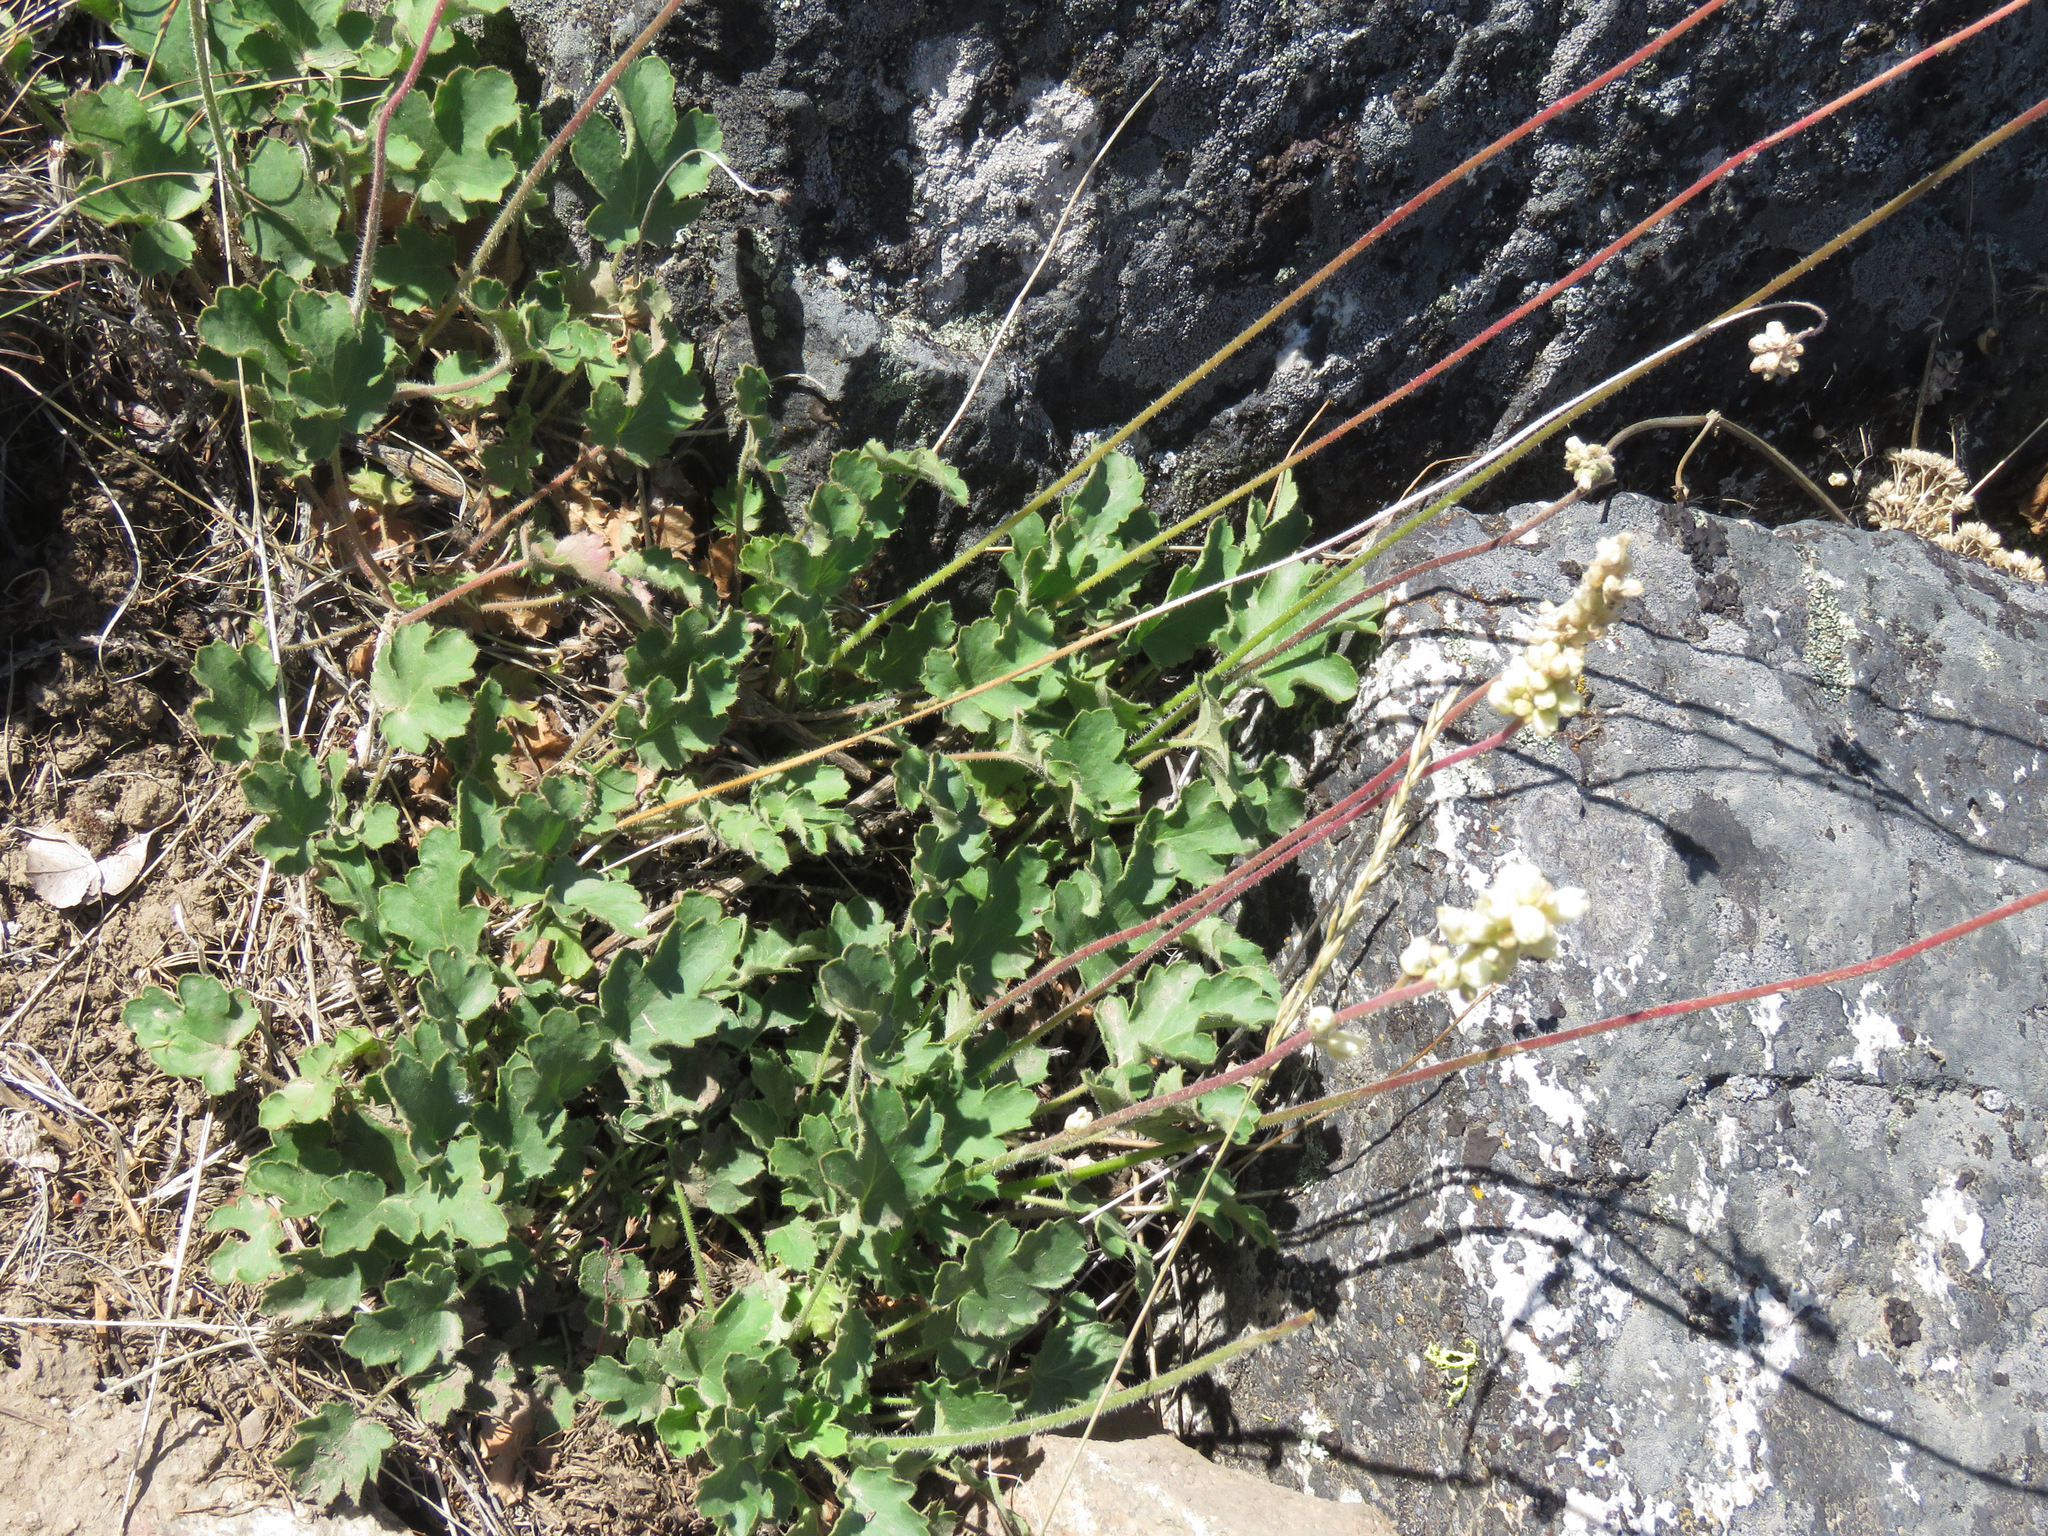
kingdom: Plantae
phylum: Tracheophyta
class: Magnoliopsida
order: Saxifragales
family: Saxifragaceae
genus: Heuchera
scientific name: Heuchera cylindrica
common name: Mat alumroot
